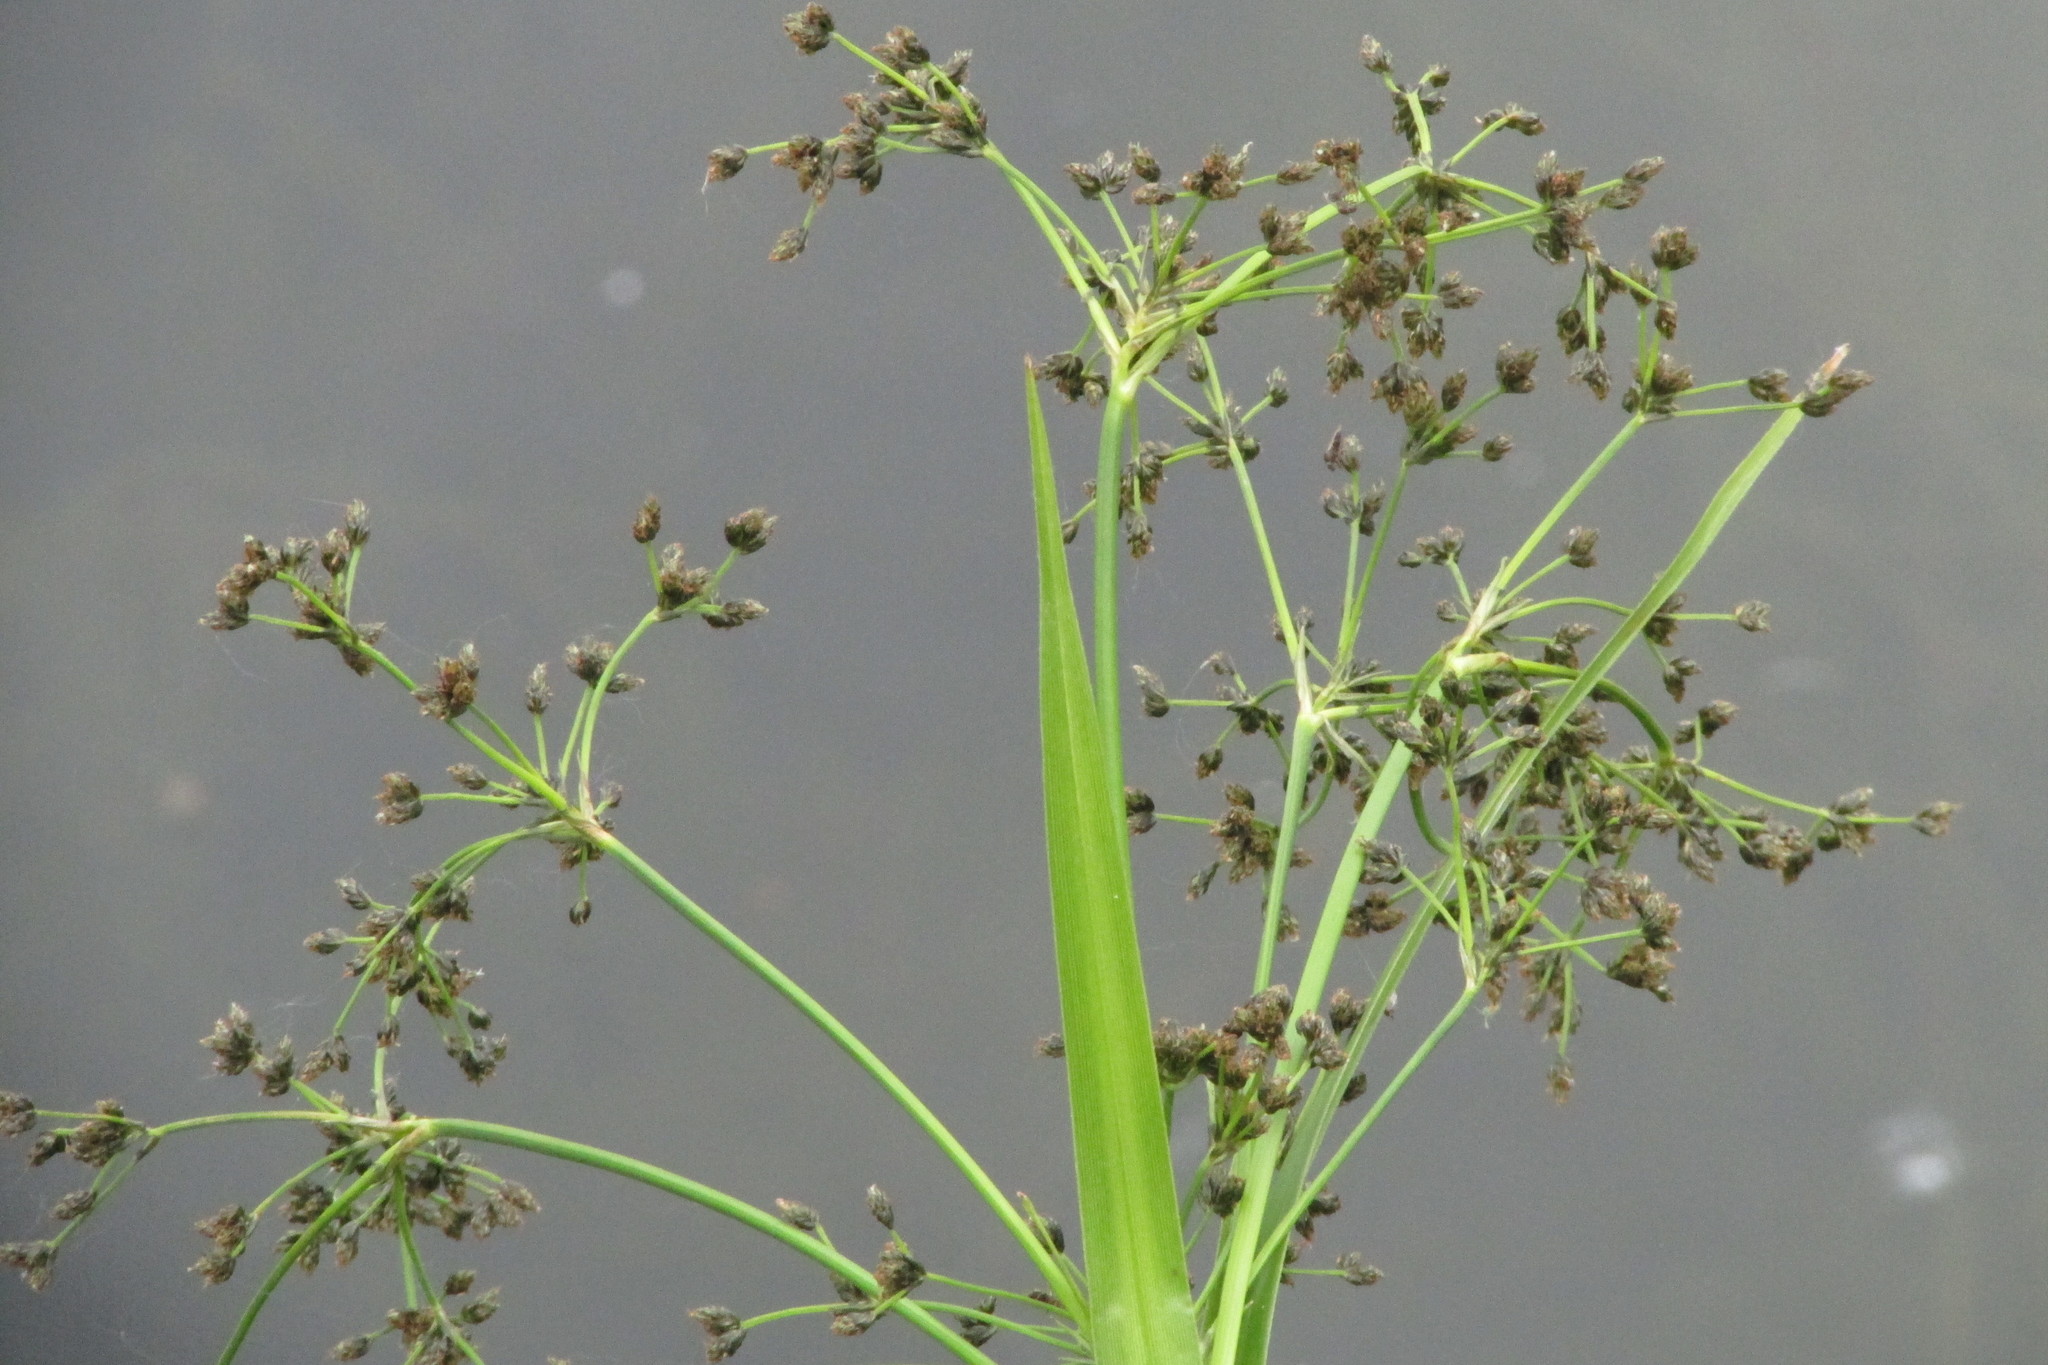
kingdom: Plantae
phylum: Tracheophyta
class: Liliopsida
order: Poales
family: Cyperaceae
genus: Scirpus
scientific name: Scirpus sylvaticus
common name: Wood club-rush
